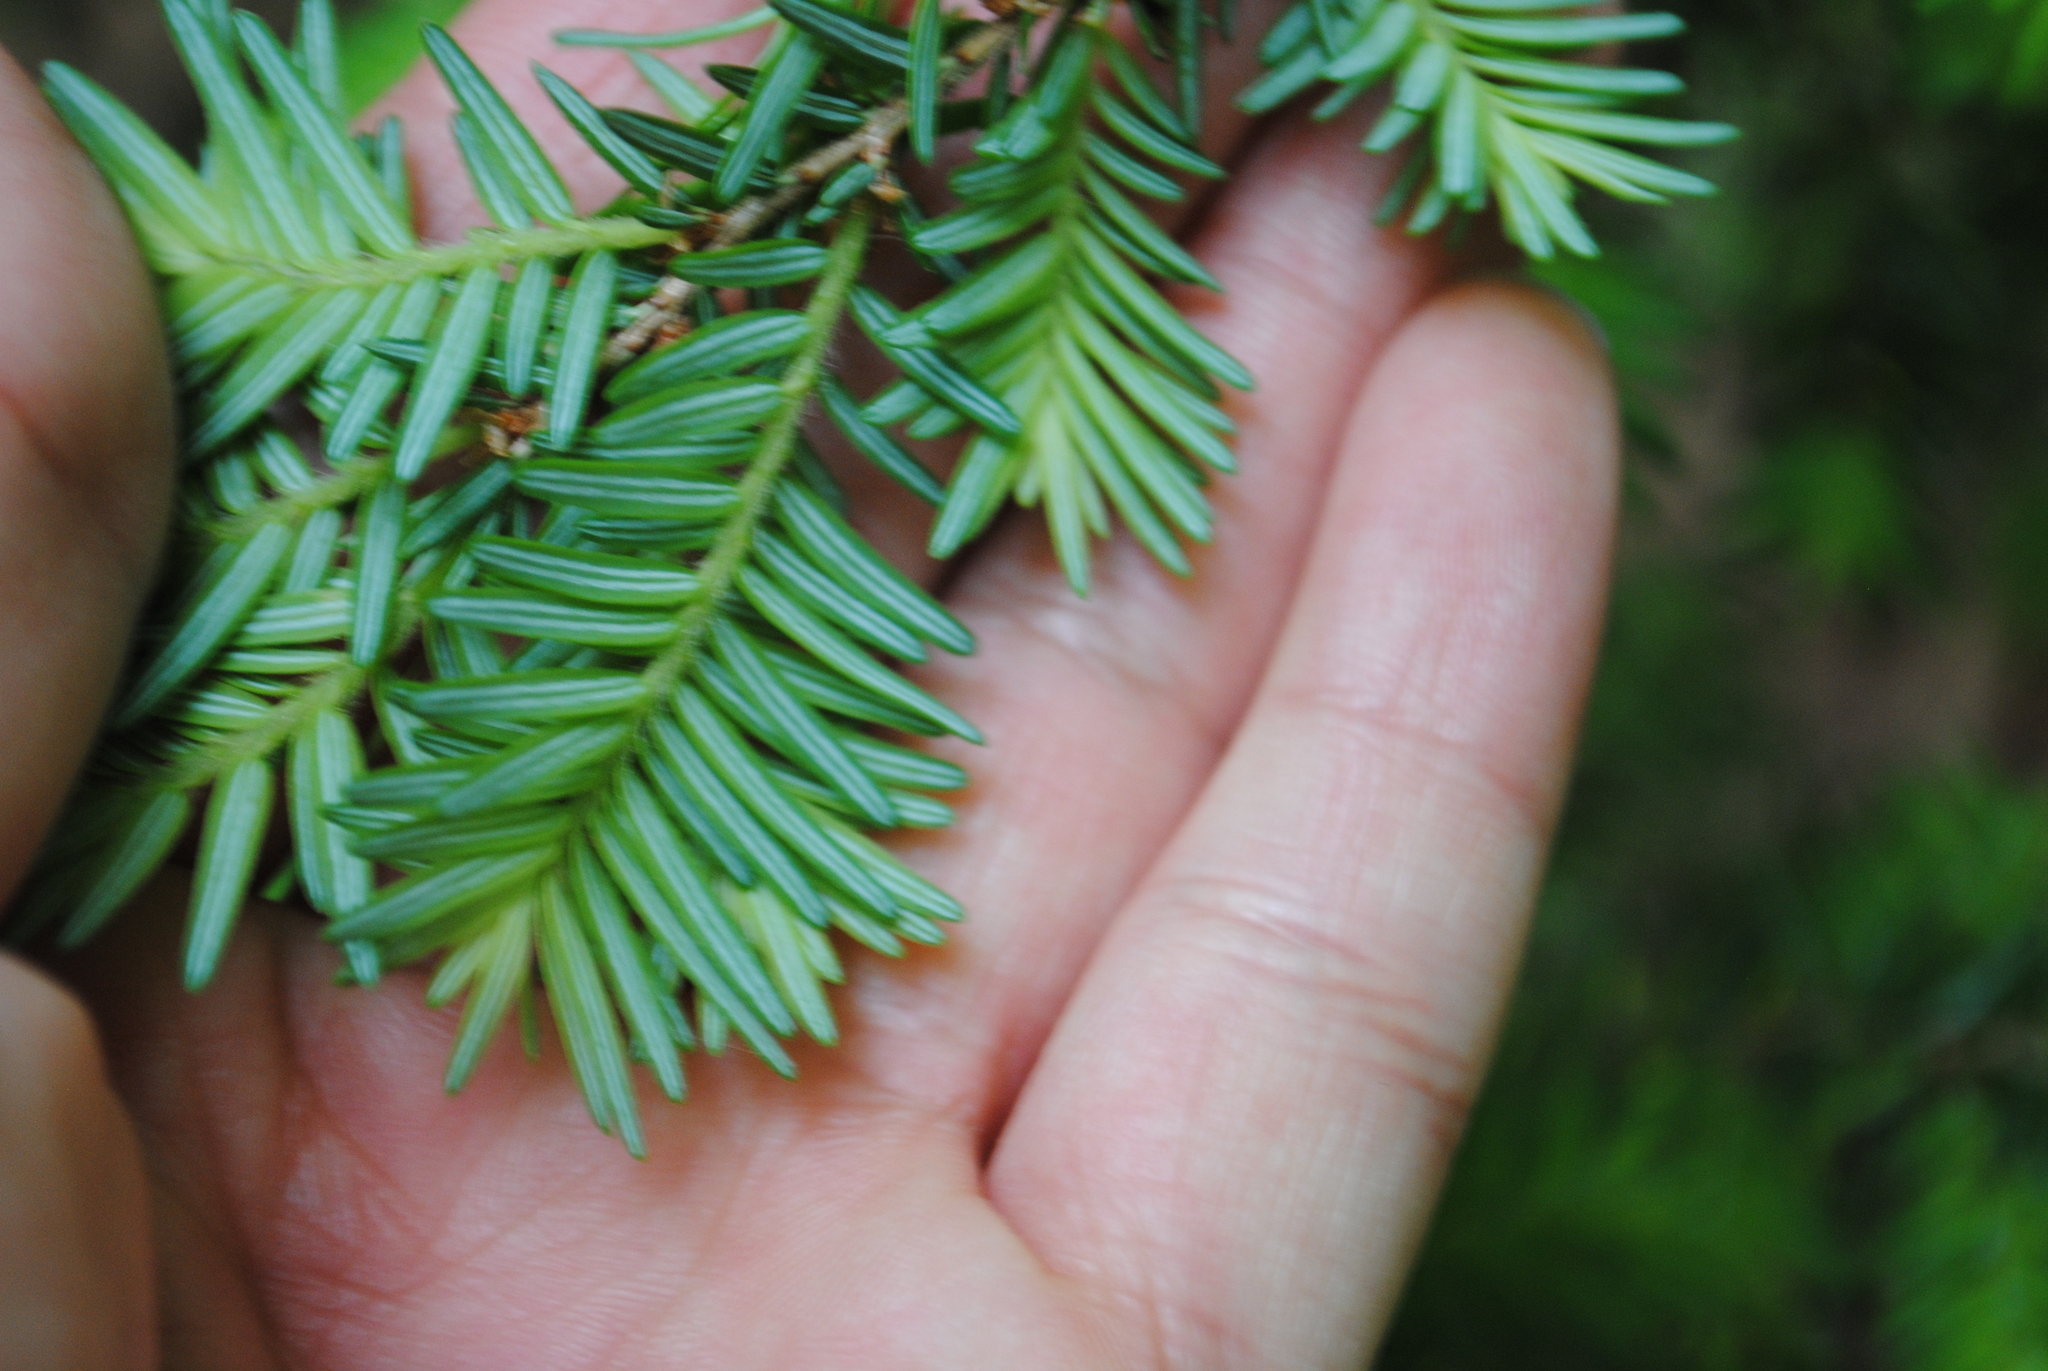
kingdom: Plantae
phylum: Tracheophyta
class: Pinopsida
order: Pinales
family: Pinaceae
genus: Tsuga
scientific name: Tsuga canadensis
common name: Eastern hemlock
